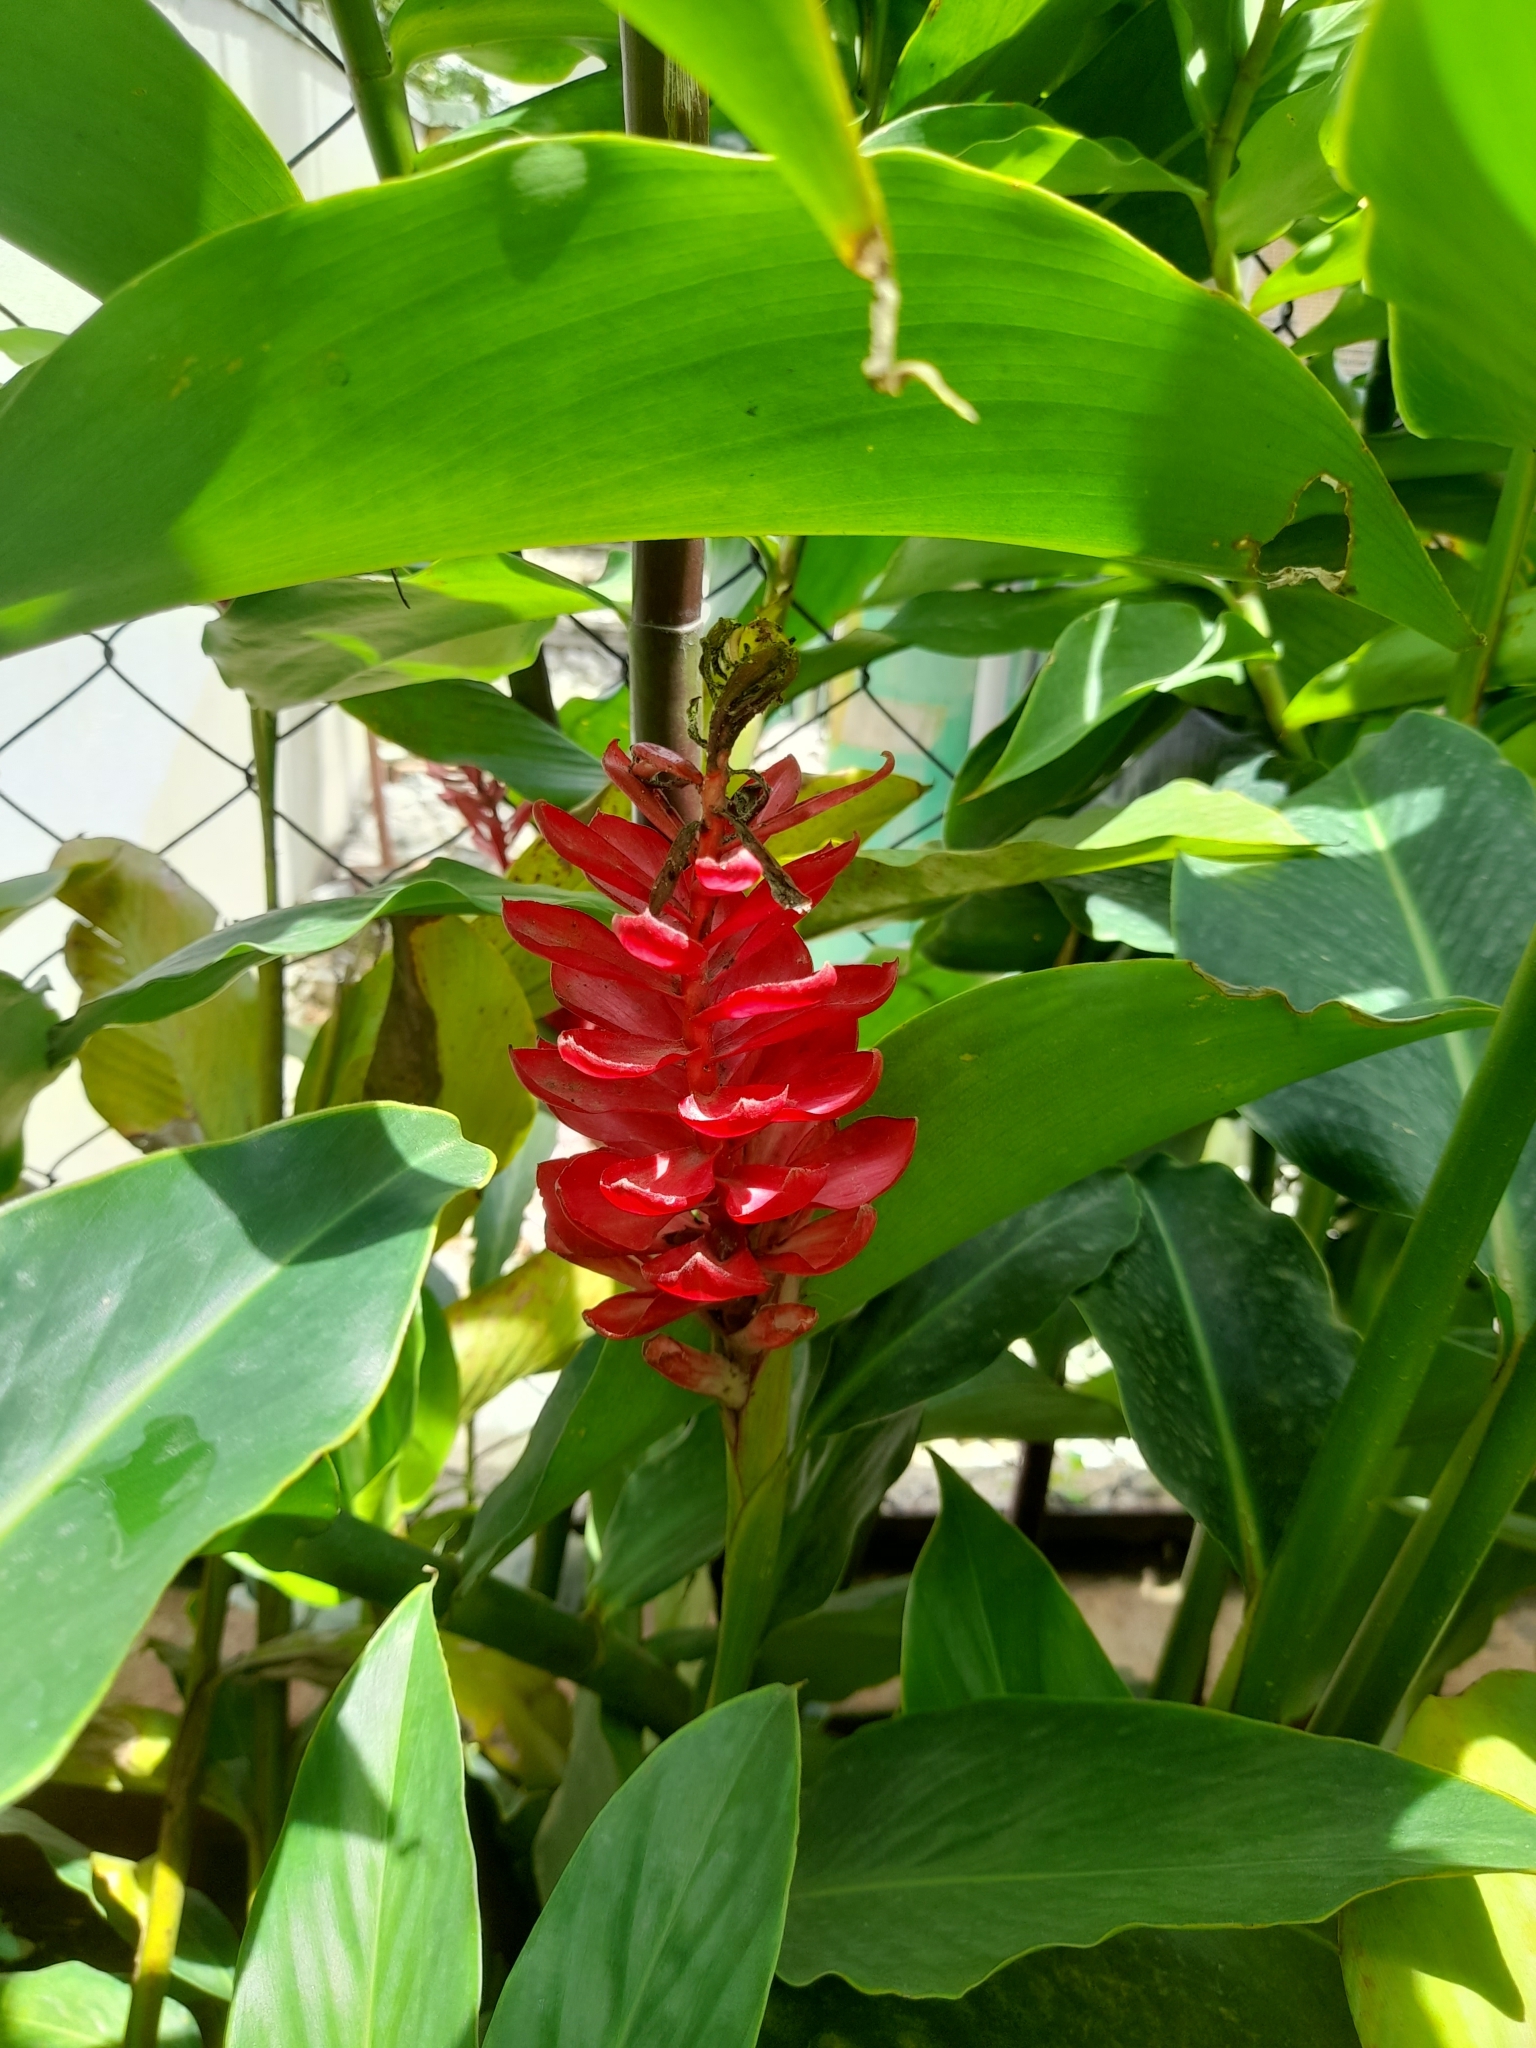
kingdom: Plantae
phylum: Tracheophyta
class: Liliopsida
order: Zingiberales
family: Zingiberaceae
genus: Alpinia
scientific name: Alpinia purpurata
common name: Red ginger
